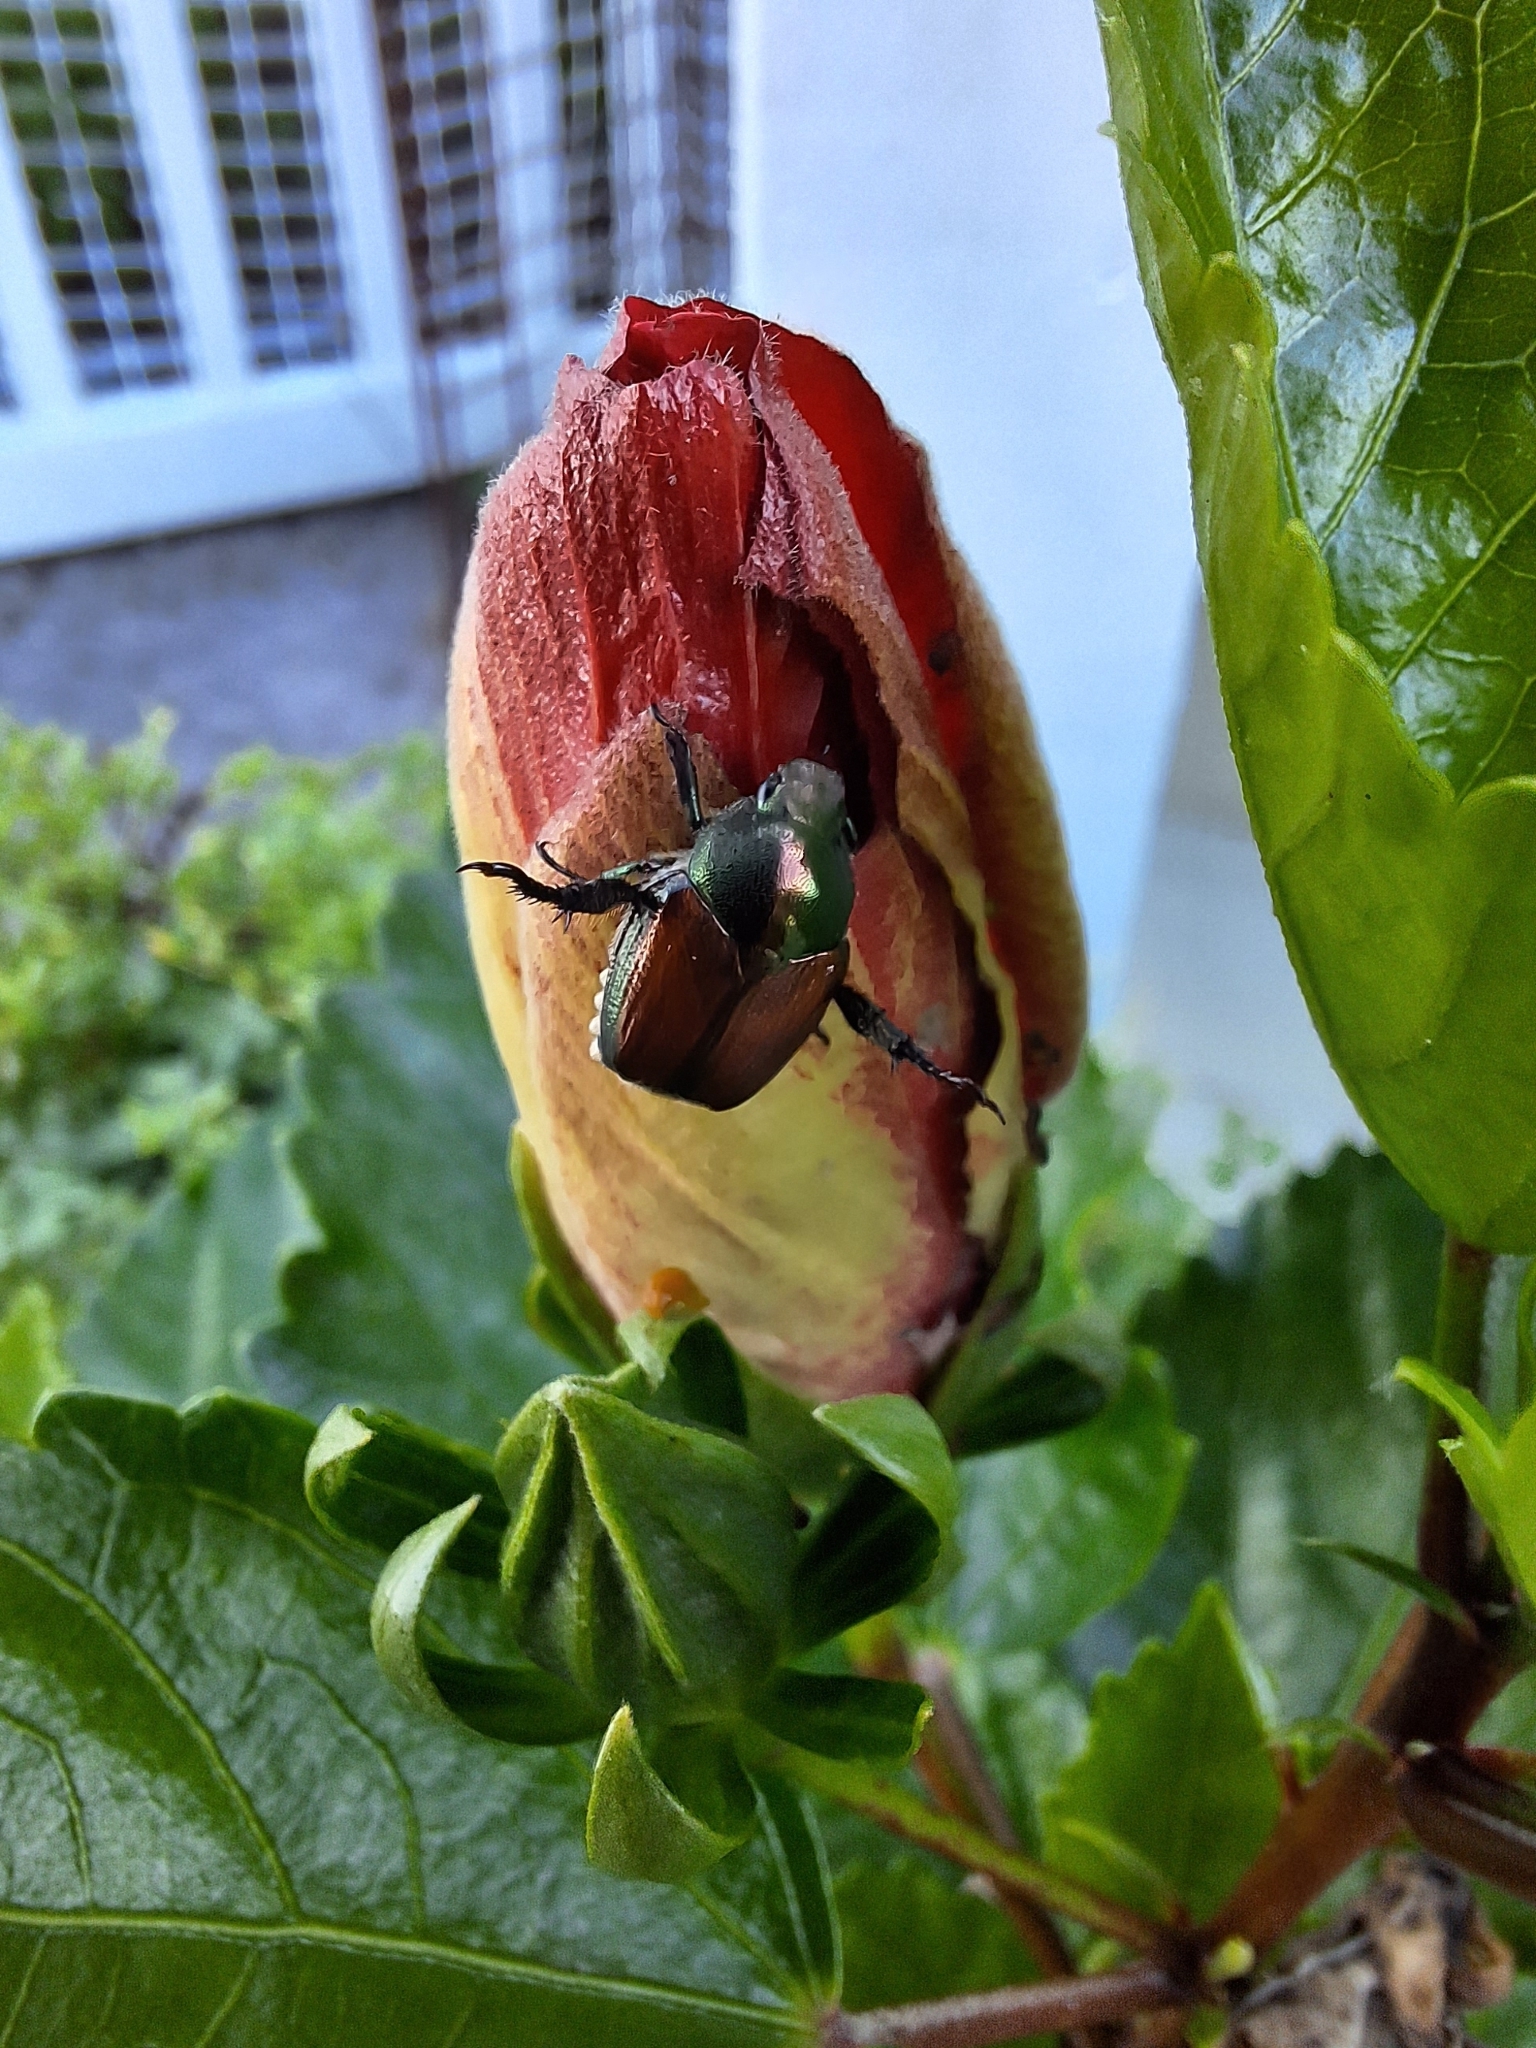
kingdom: Animalia
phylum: Arthropoda
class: Insecta
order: Coleoptera
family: Scarabaeidae
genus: Popillia
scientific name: Popillia japonica
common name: Japanese beetle
